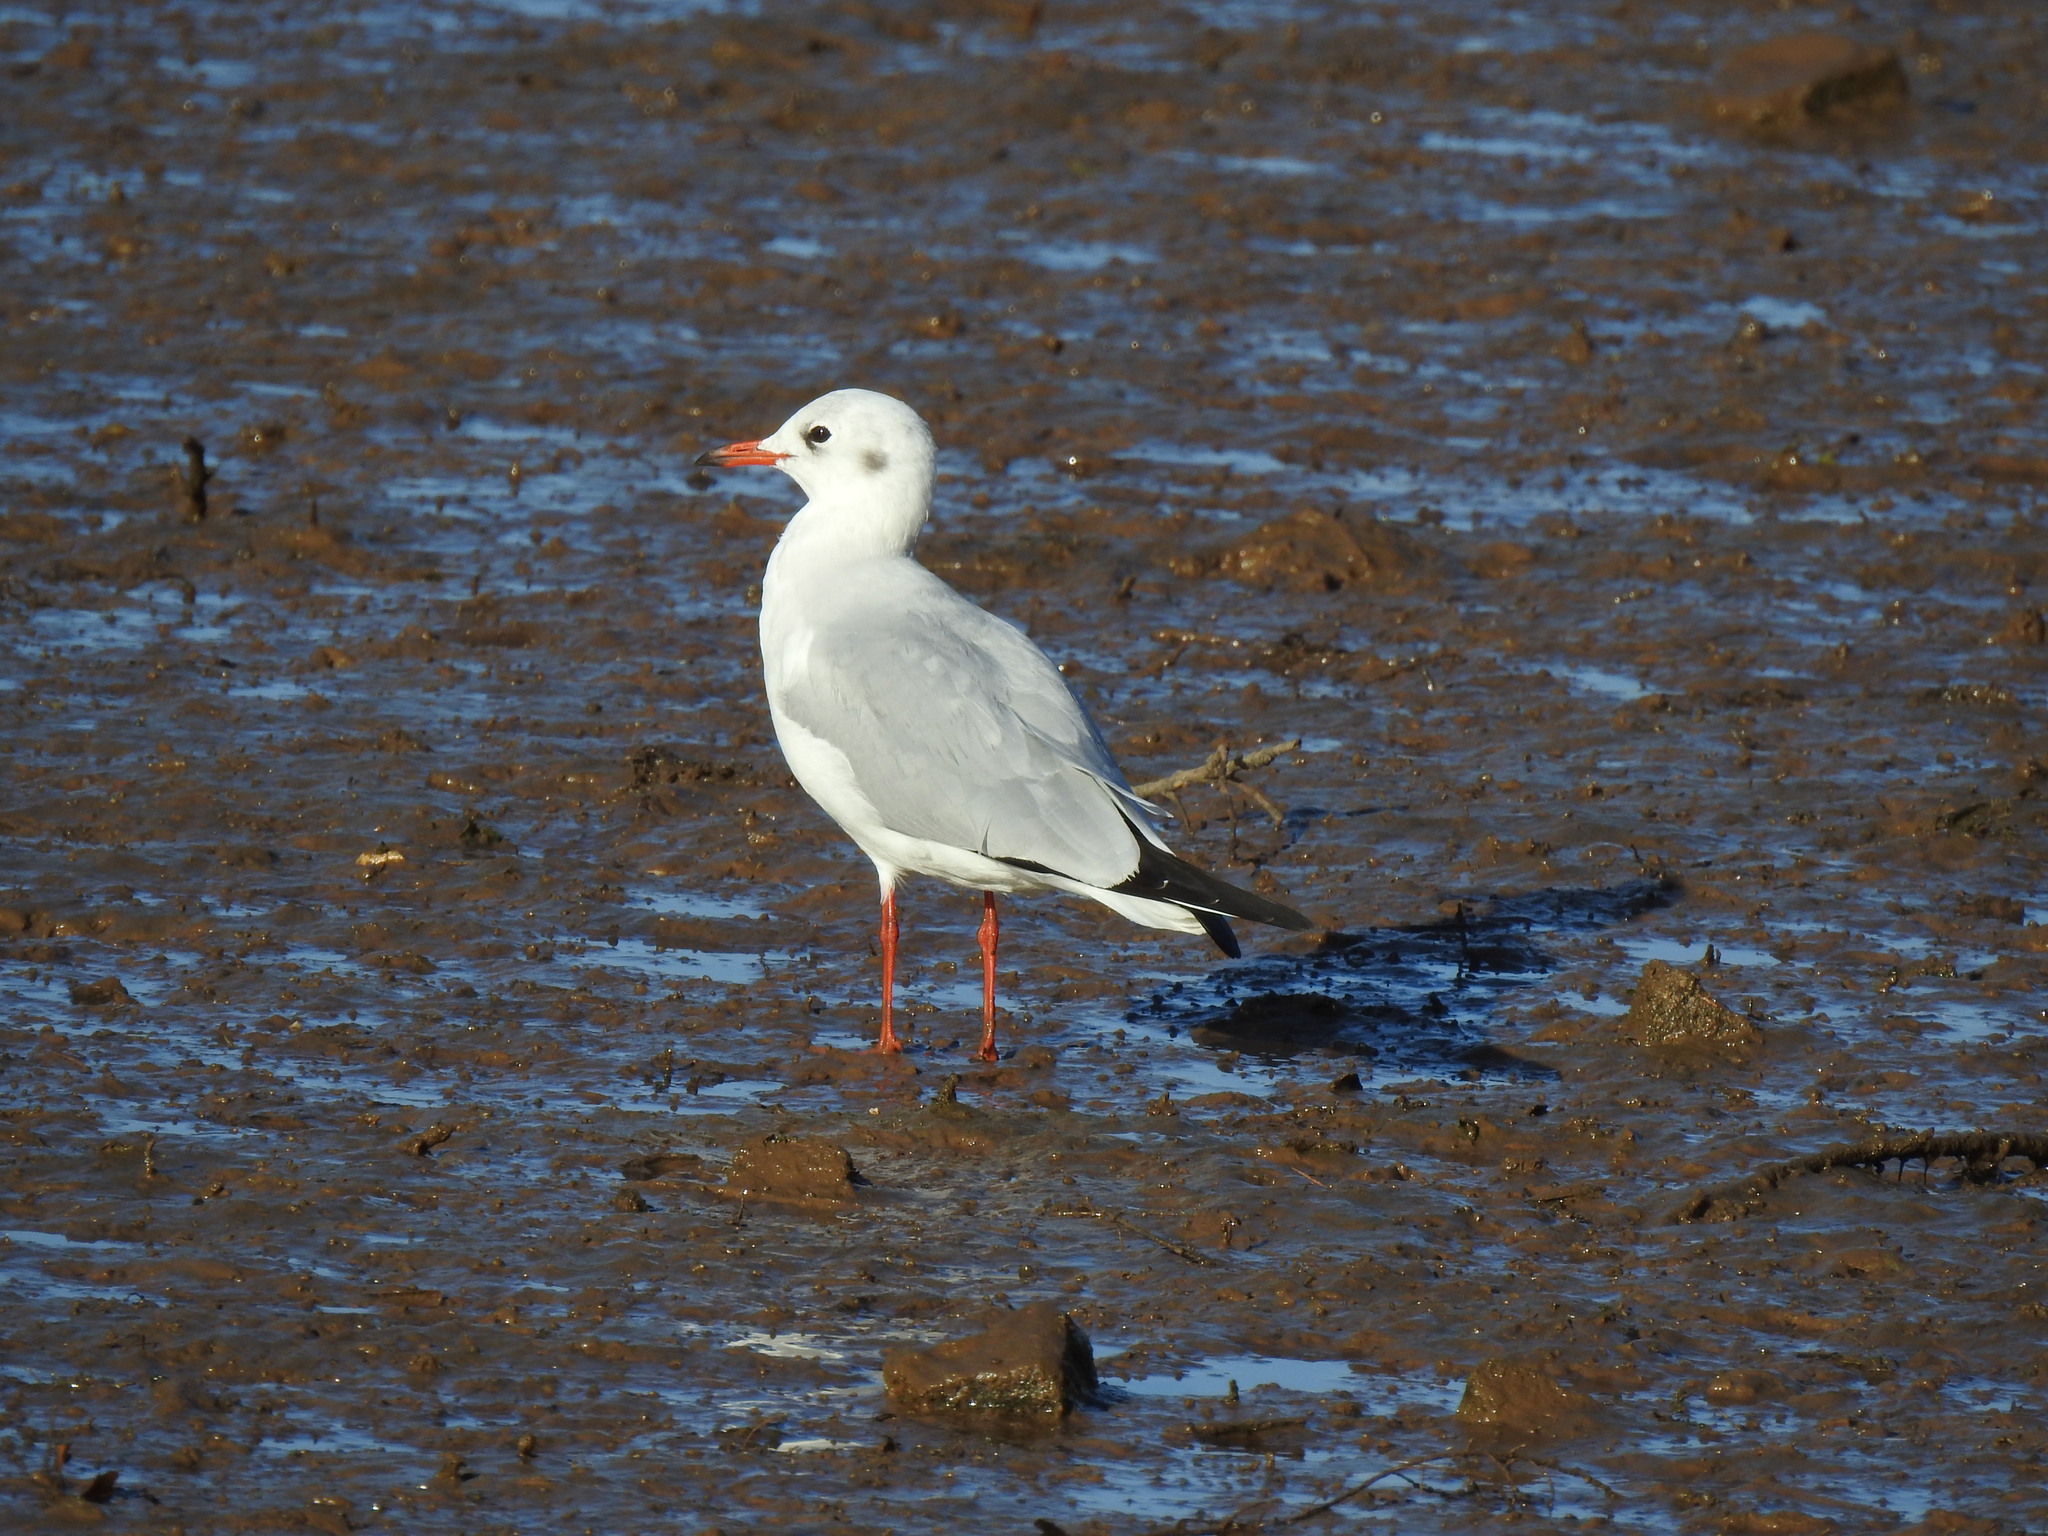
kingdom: Animalia
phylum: Chordata
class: Aves
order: Charadriiformes
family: Laridae
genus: Chroicocephalus
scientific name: Chroicocephalus ridibundus
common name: Black-headed gull
